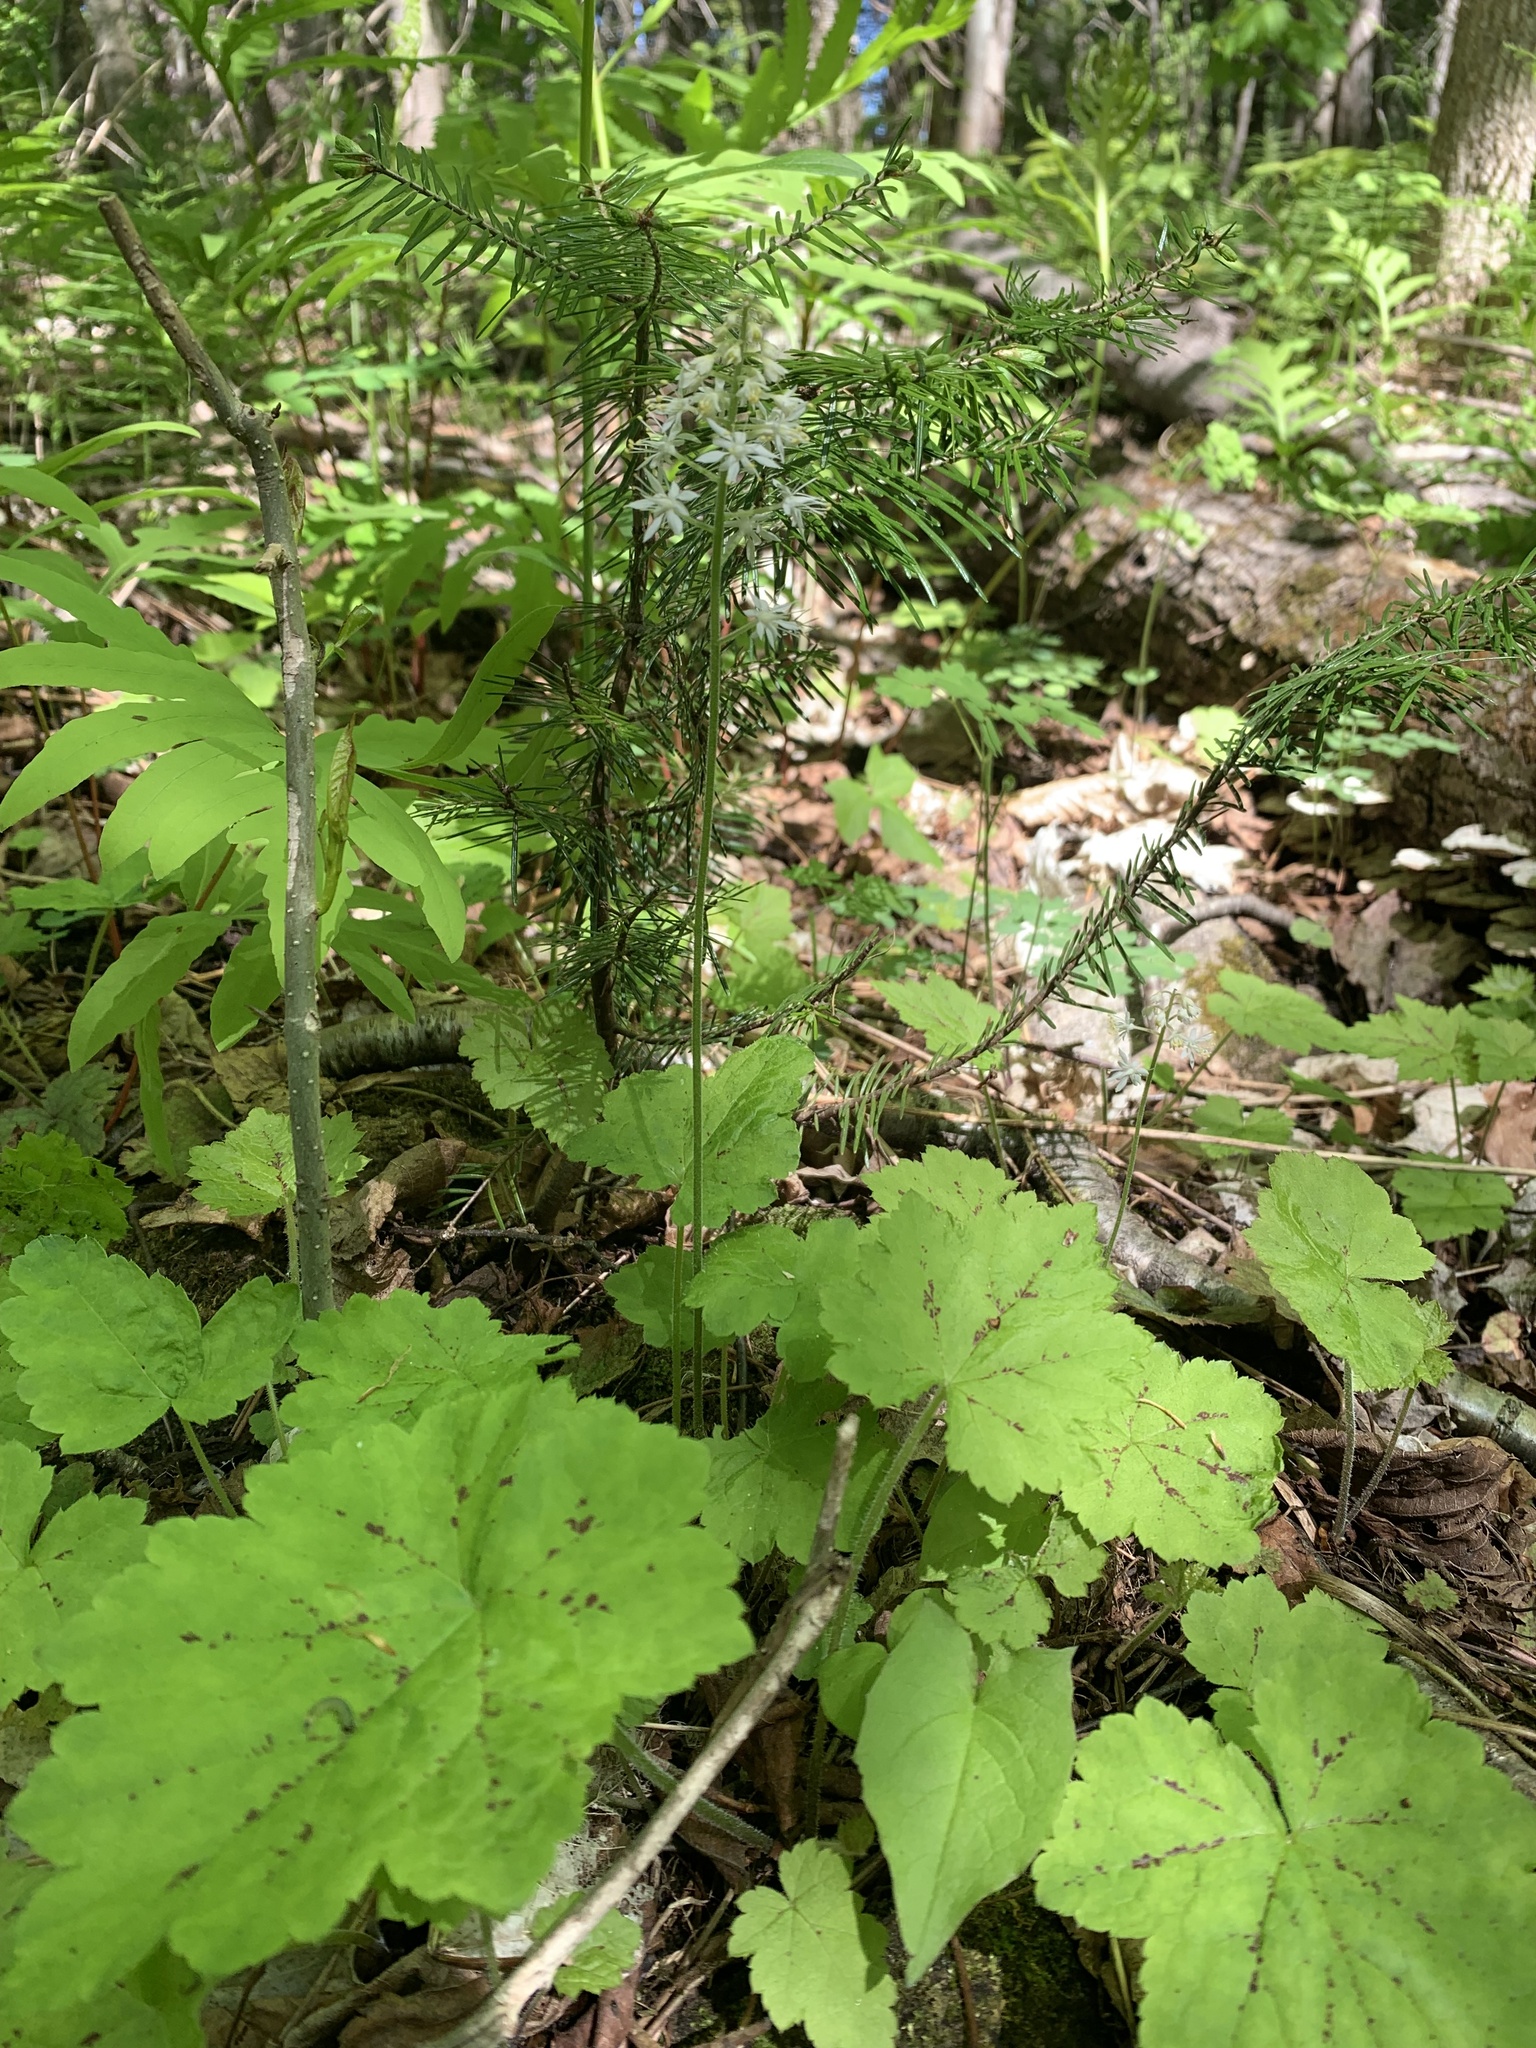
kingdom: Plantae
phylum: Tracheophyta
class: Magnoliopsida
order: Saxifragales
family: Saxifragaceae
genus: Tiarella
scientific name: Tiarella stolonifera
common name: Stoloniferous foamflower
